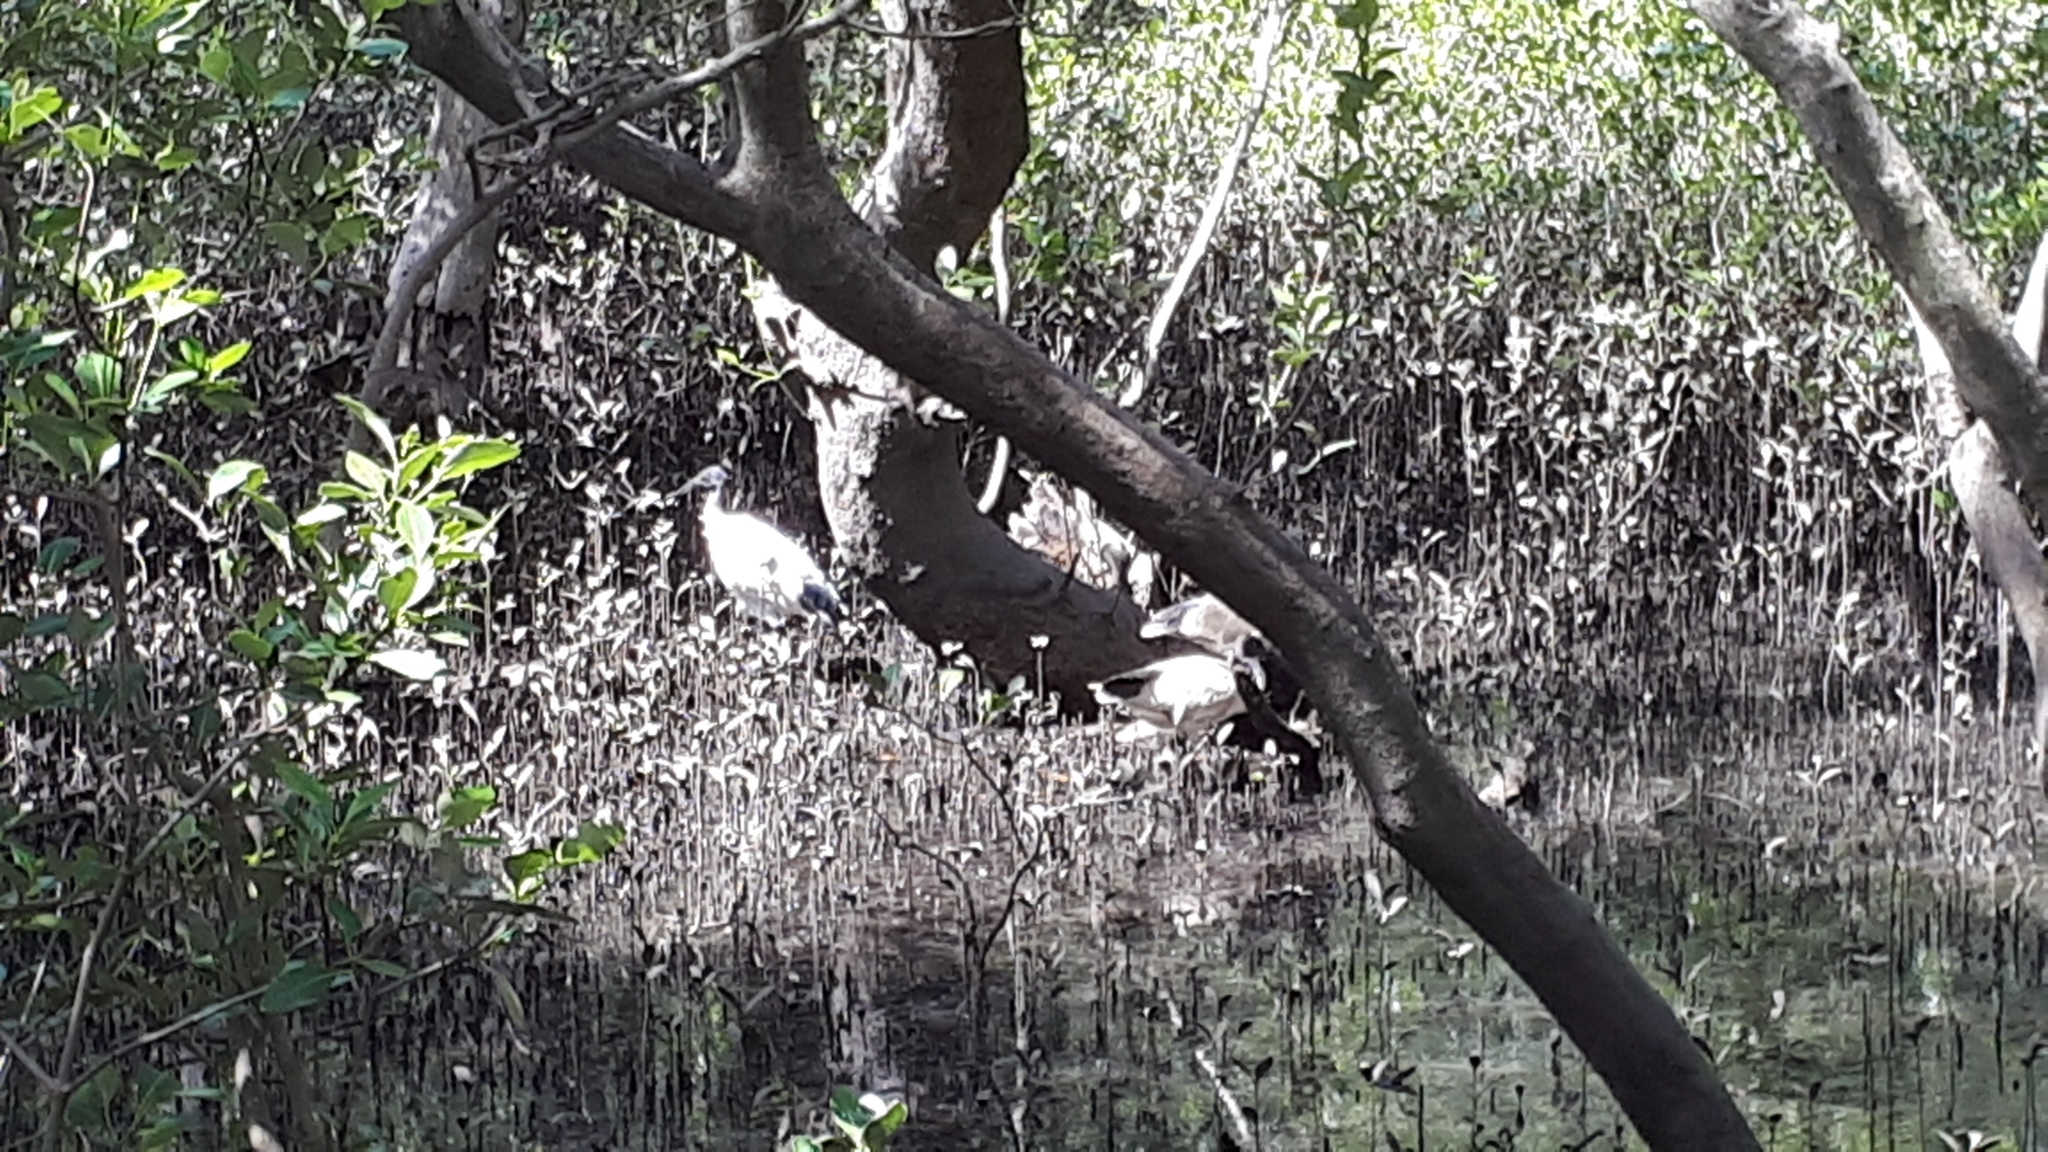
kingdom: Animalia
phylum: Chordata
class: Aves
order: Pelecaniformes
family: Threskiornithidae
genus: Threskiornis
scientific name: Threskiornis molucca
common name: Australian white ibis
